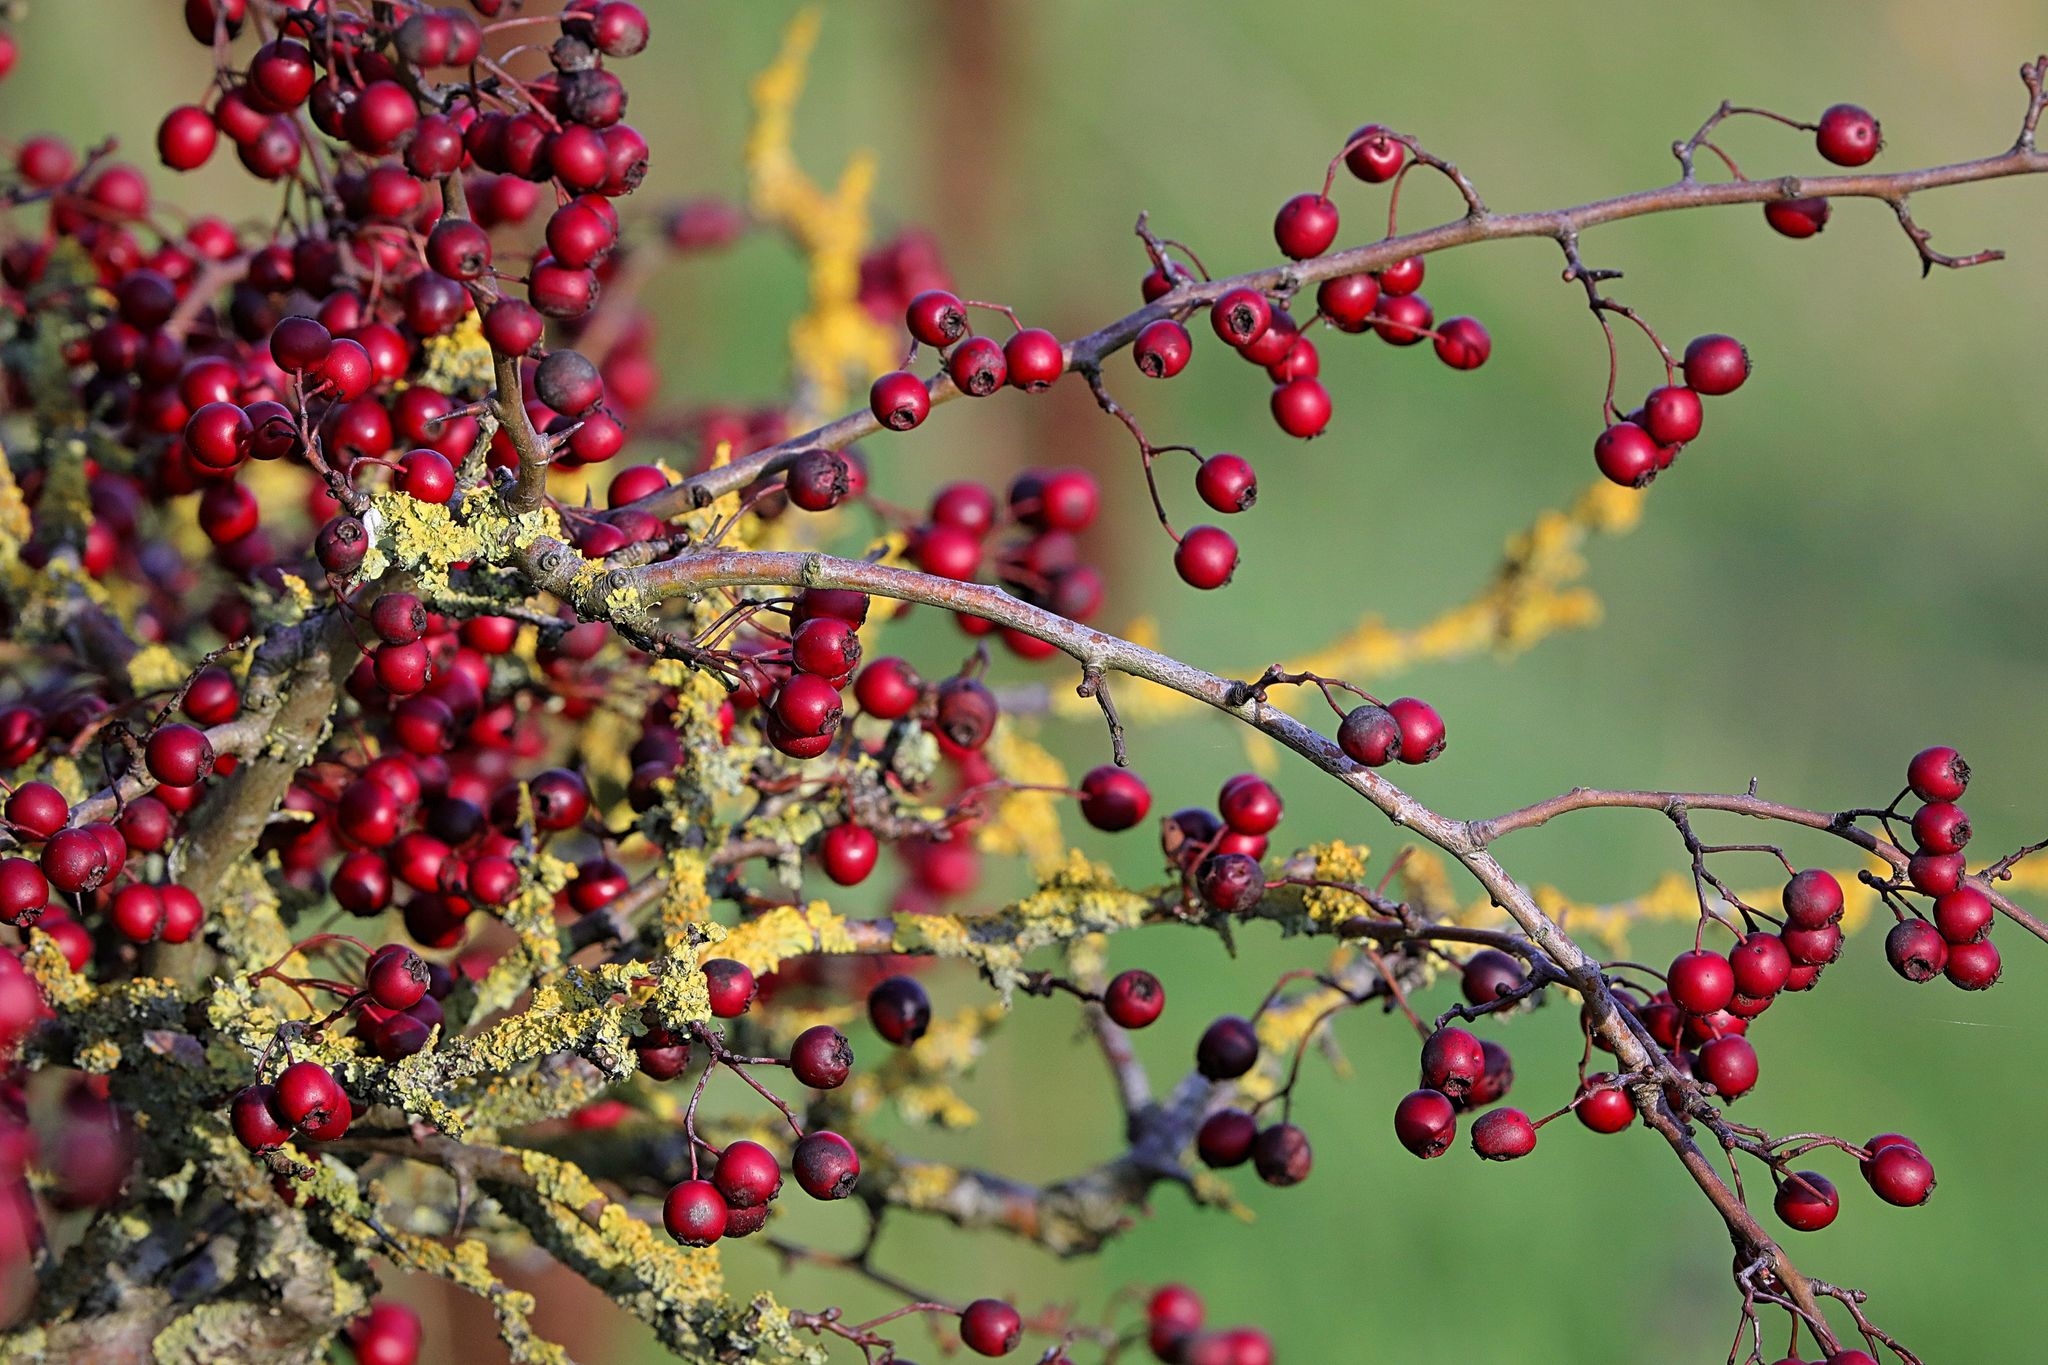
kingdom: Plantae
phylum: Tracheophyta
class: Magnoliopsida
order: Rosales
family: Rosaceae
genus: Crataegus
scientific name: Crataegus monogyna
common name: Hawthorn
